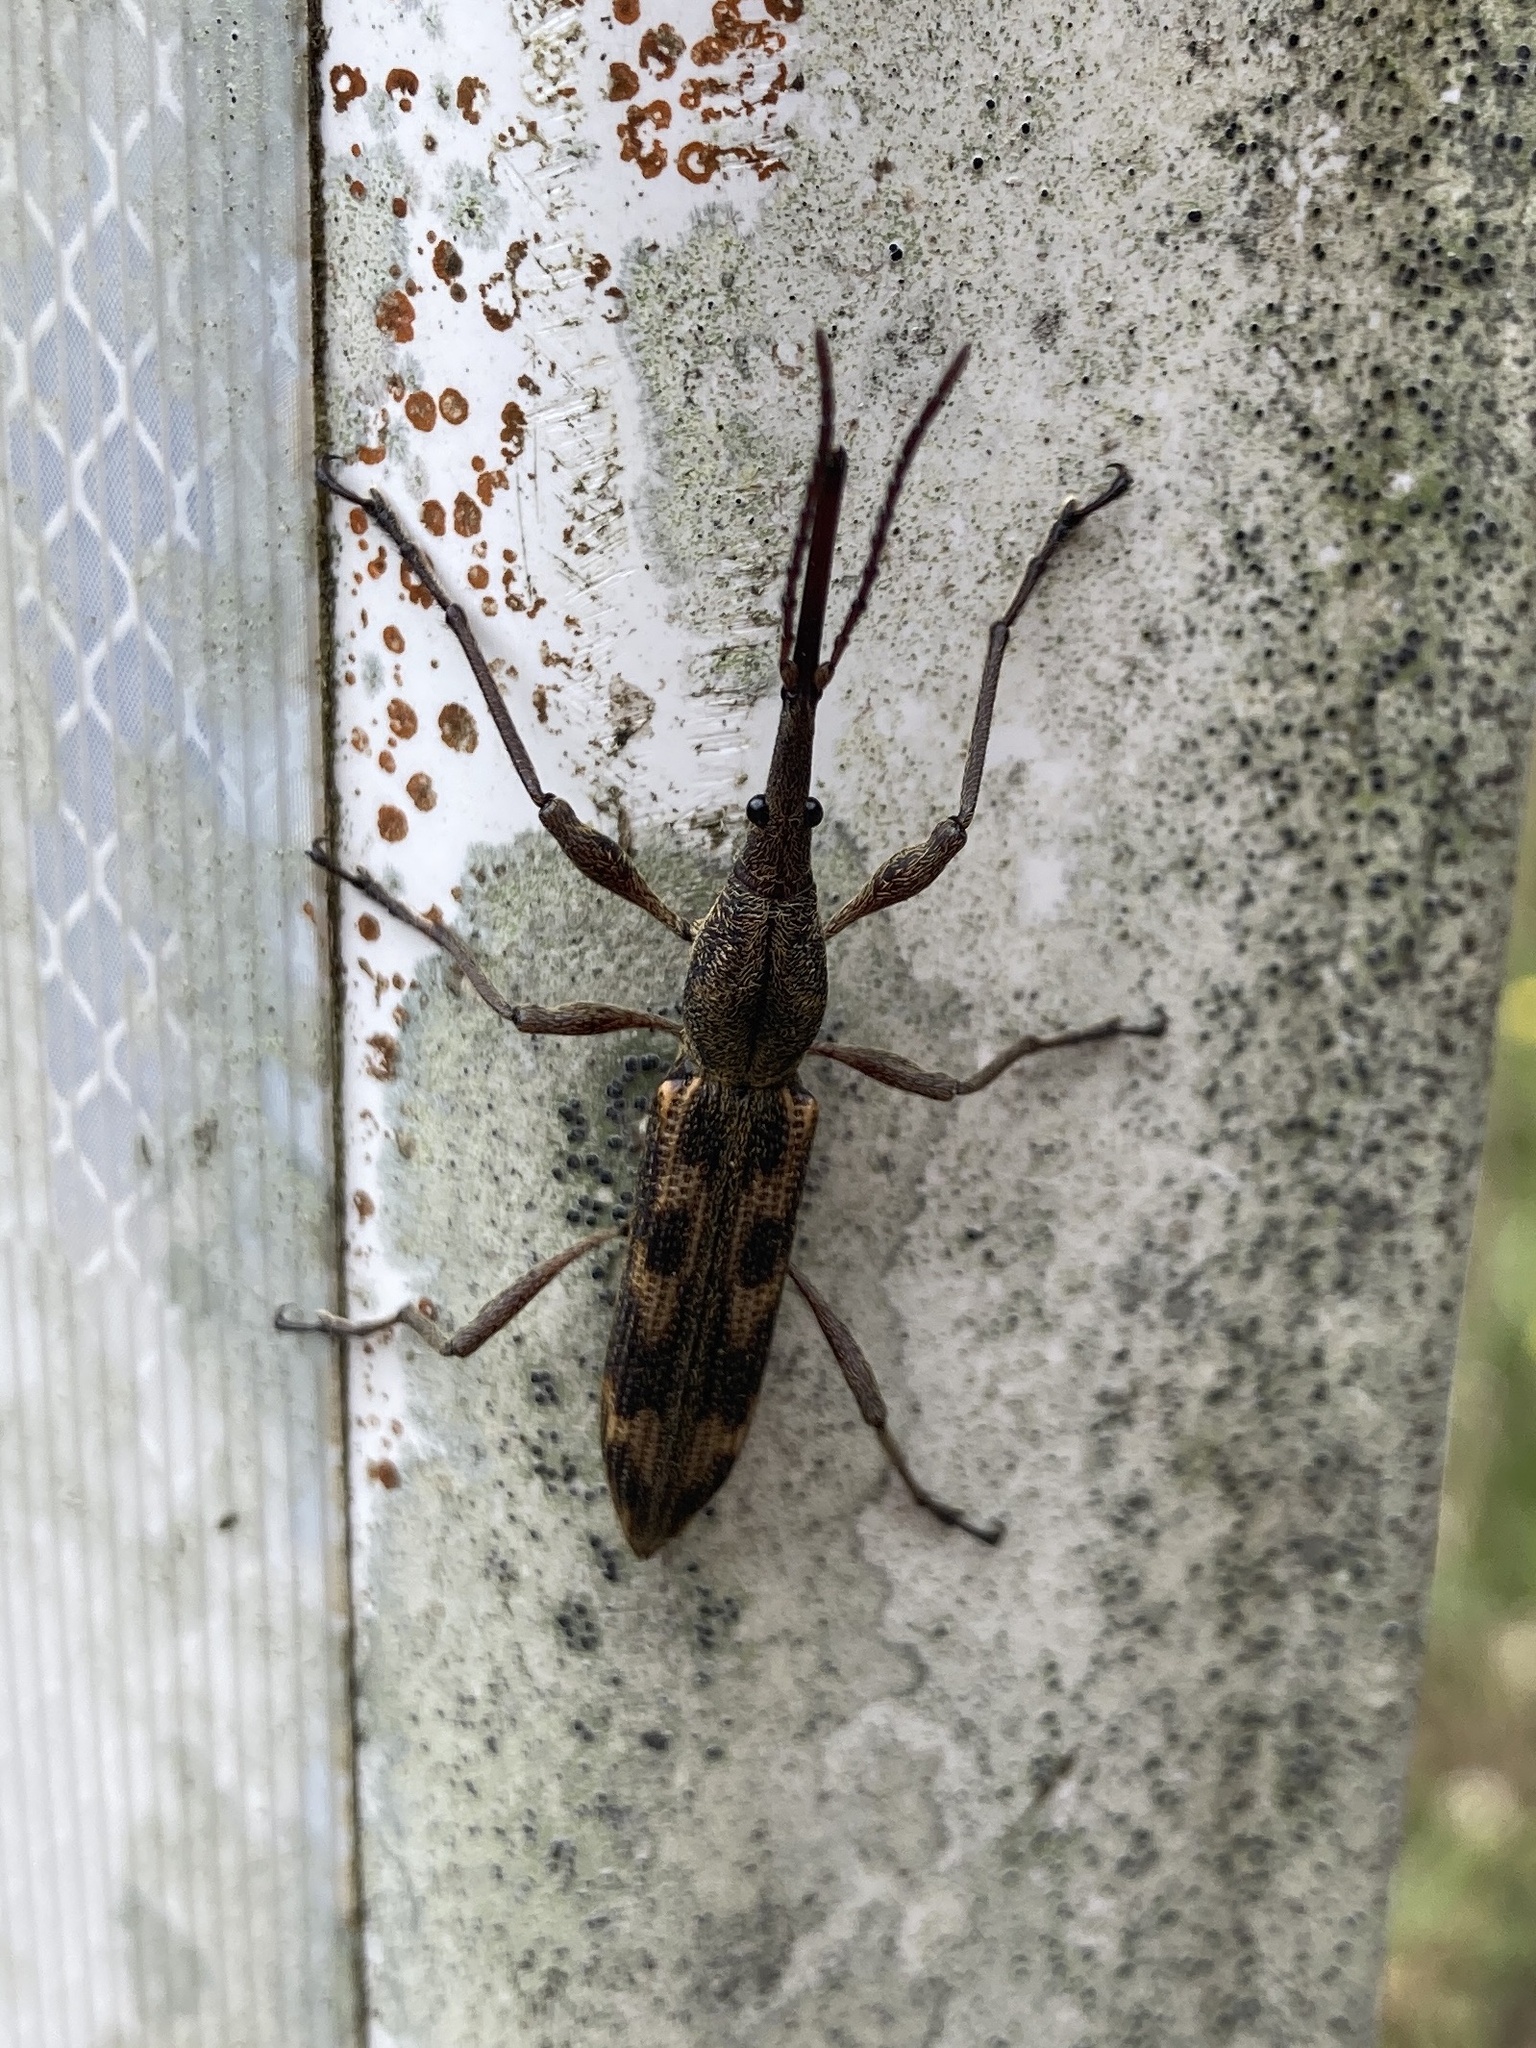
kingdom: Animalia
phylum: Arthropoda
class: Insecta
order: Coleoptera
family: Brentidae
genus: Lasiorhynchus
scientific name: Lasiorhynchus barbicornis
